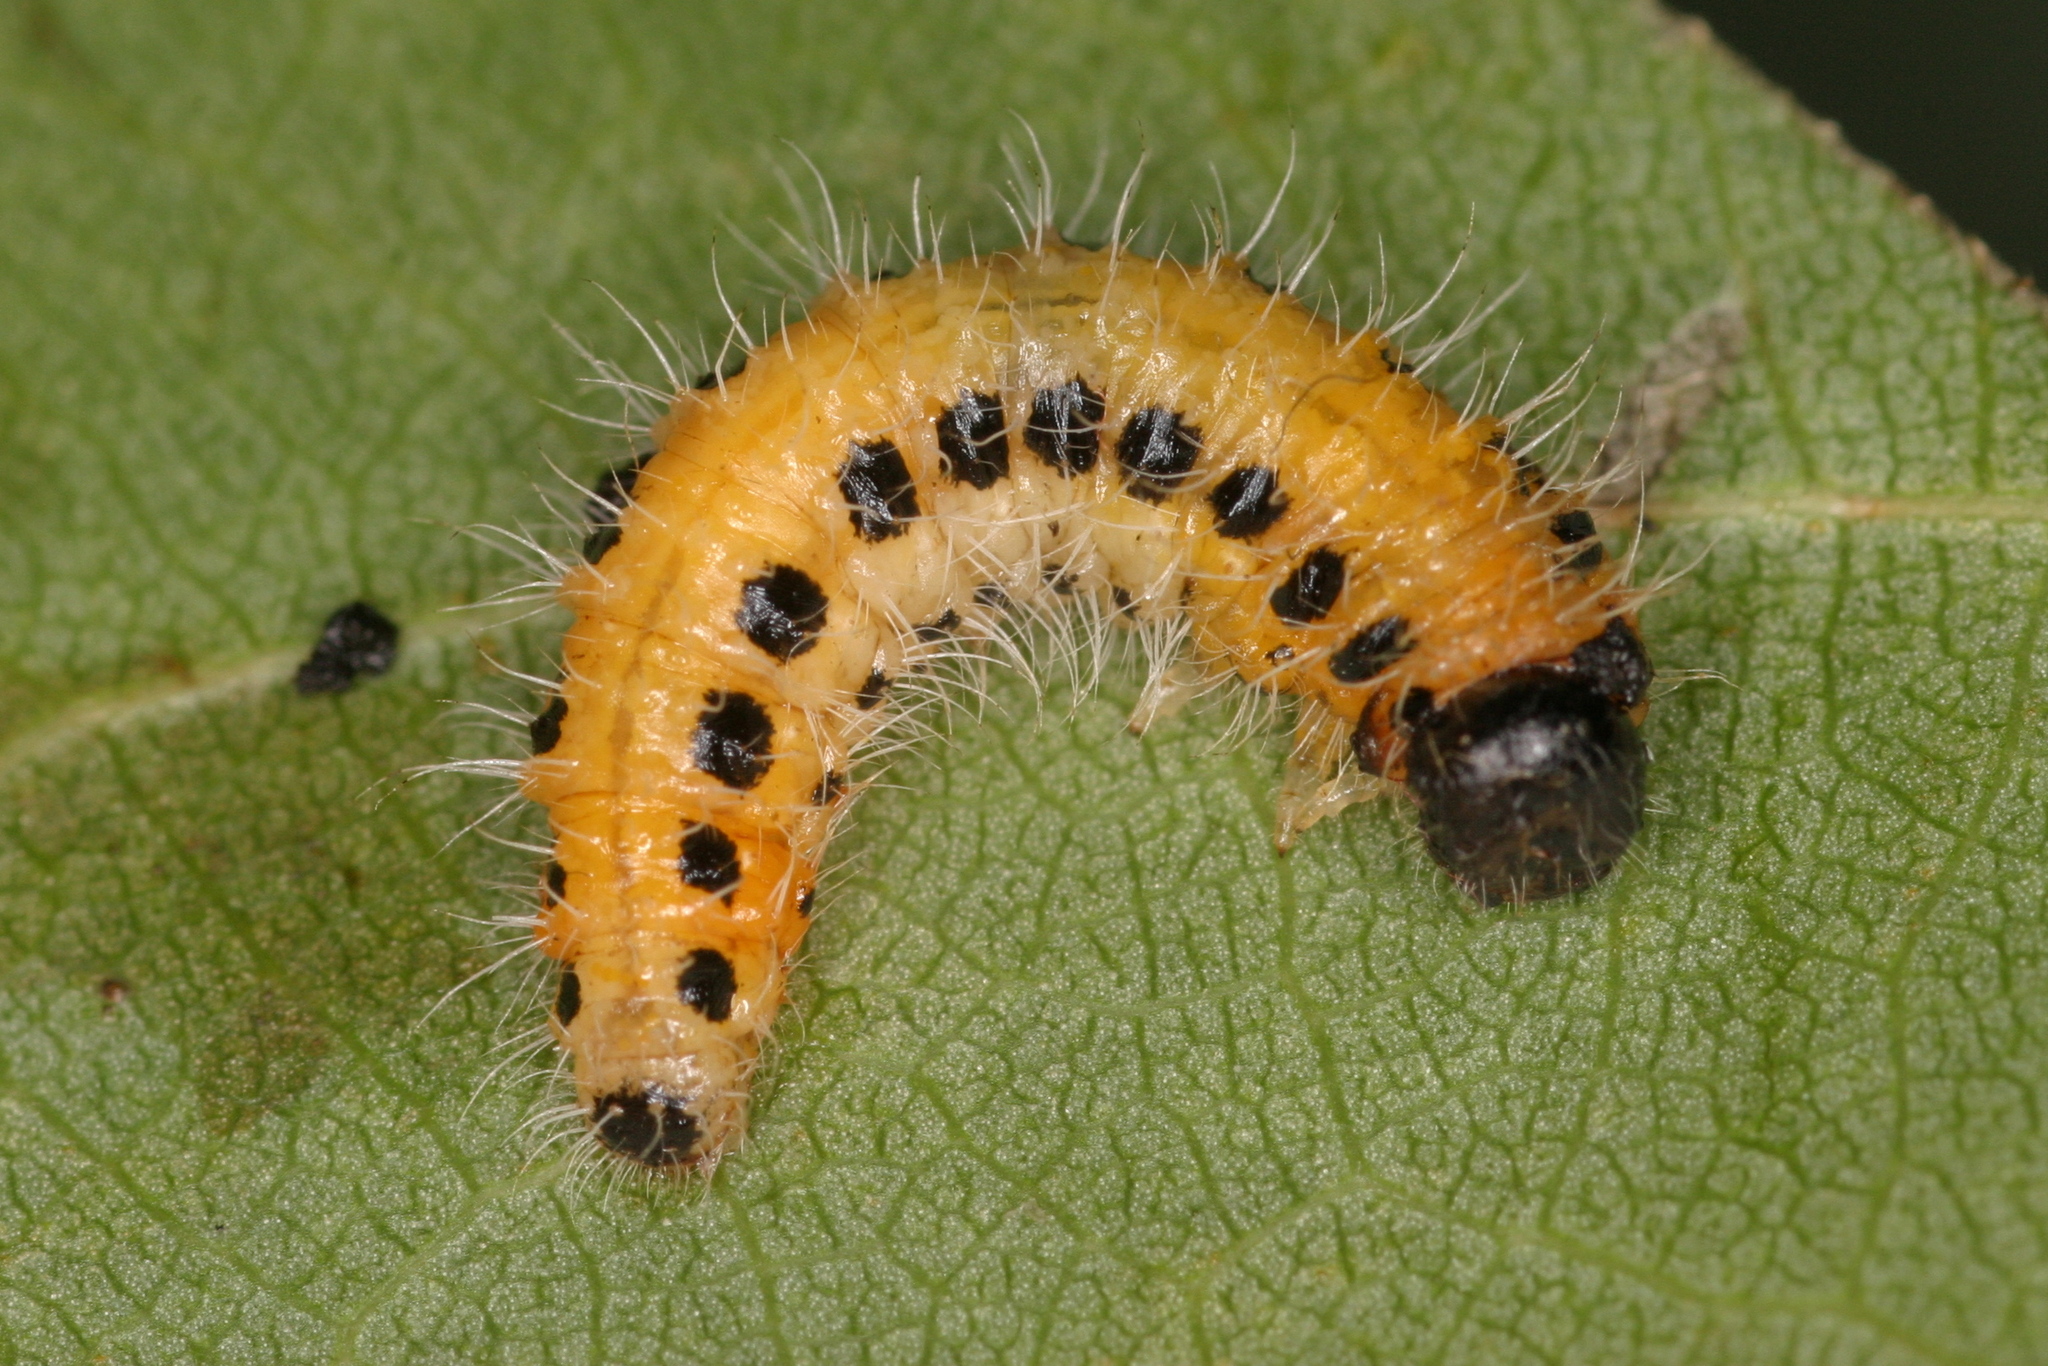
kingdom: Animalia
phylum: Arthropoda
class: Insecta
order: Hymenoptera
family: Tenthredinidae
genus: Cladius
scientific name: Cladius grandis
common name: Common sawfly
